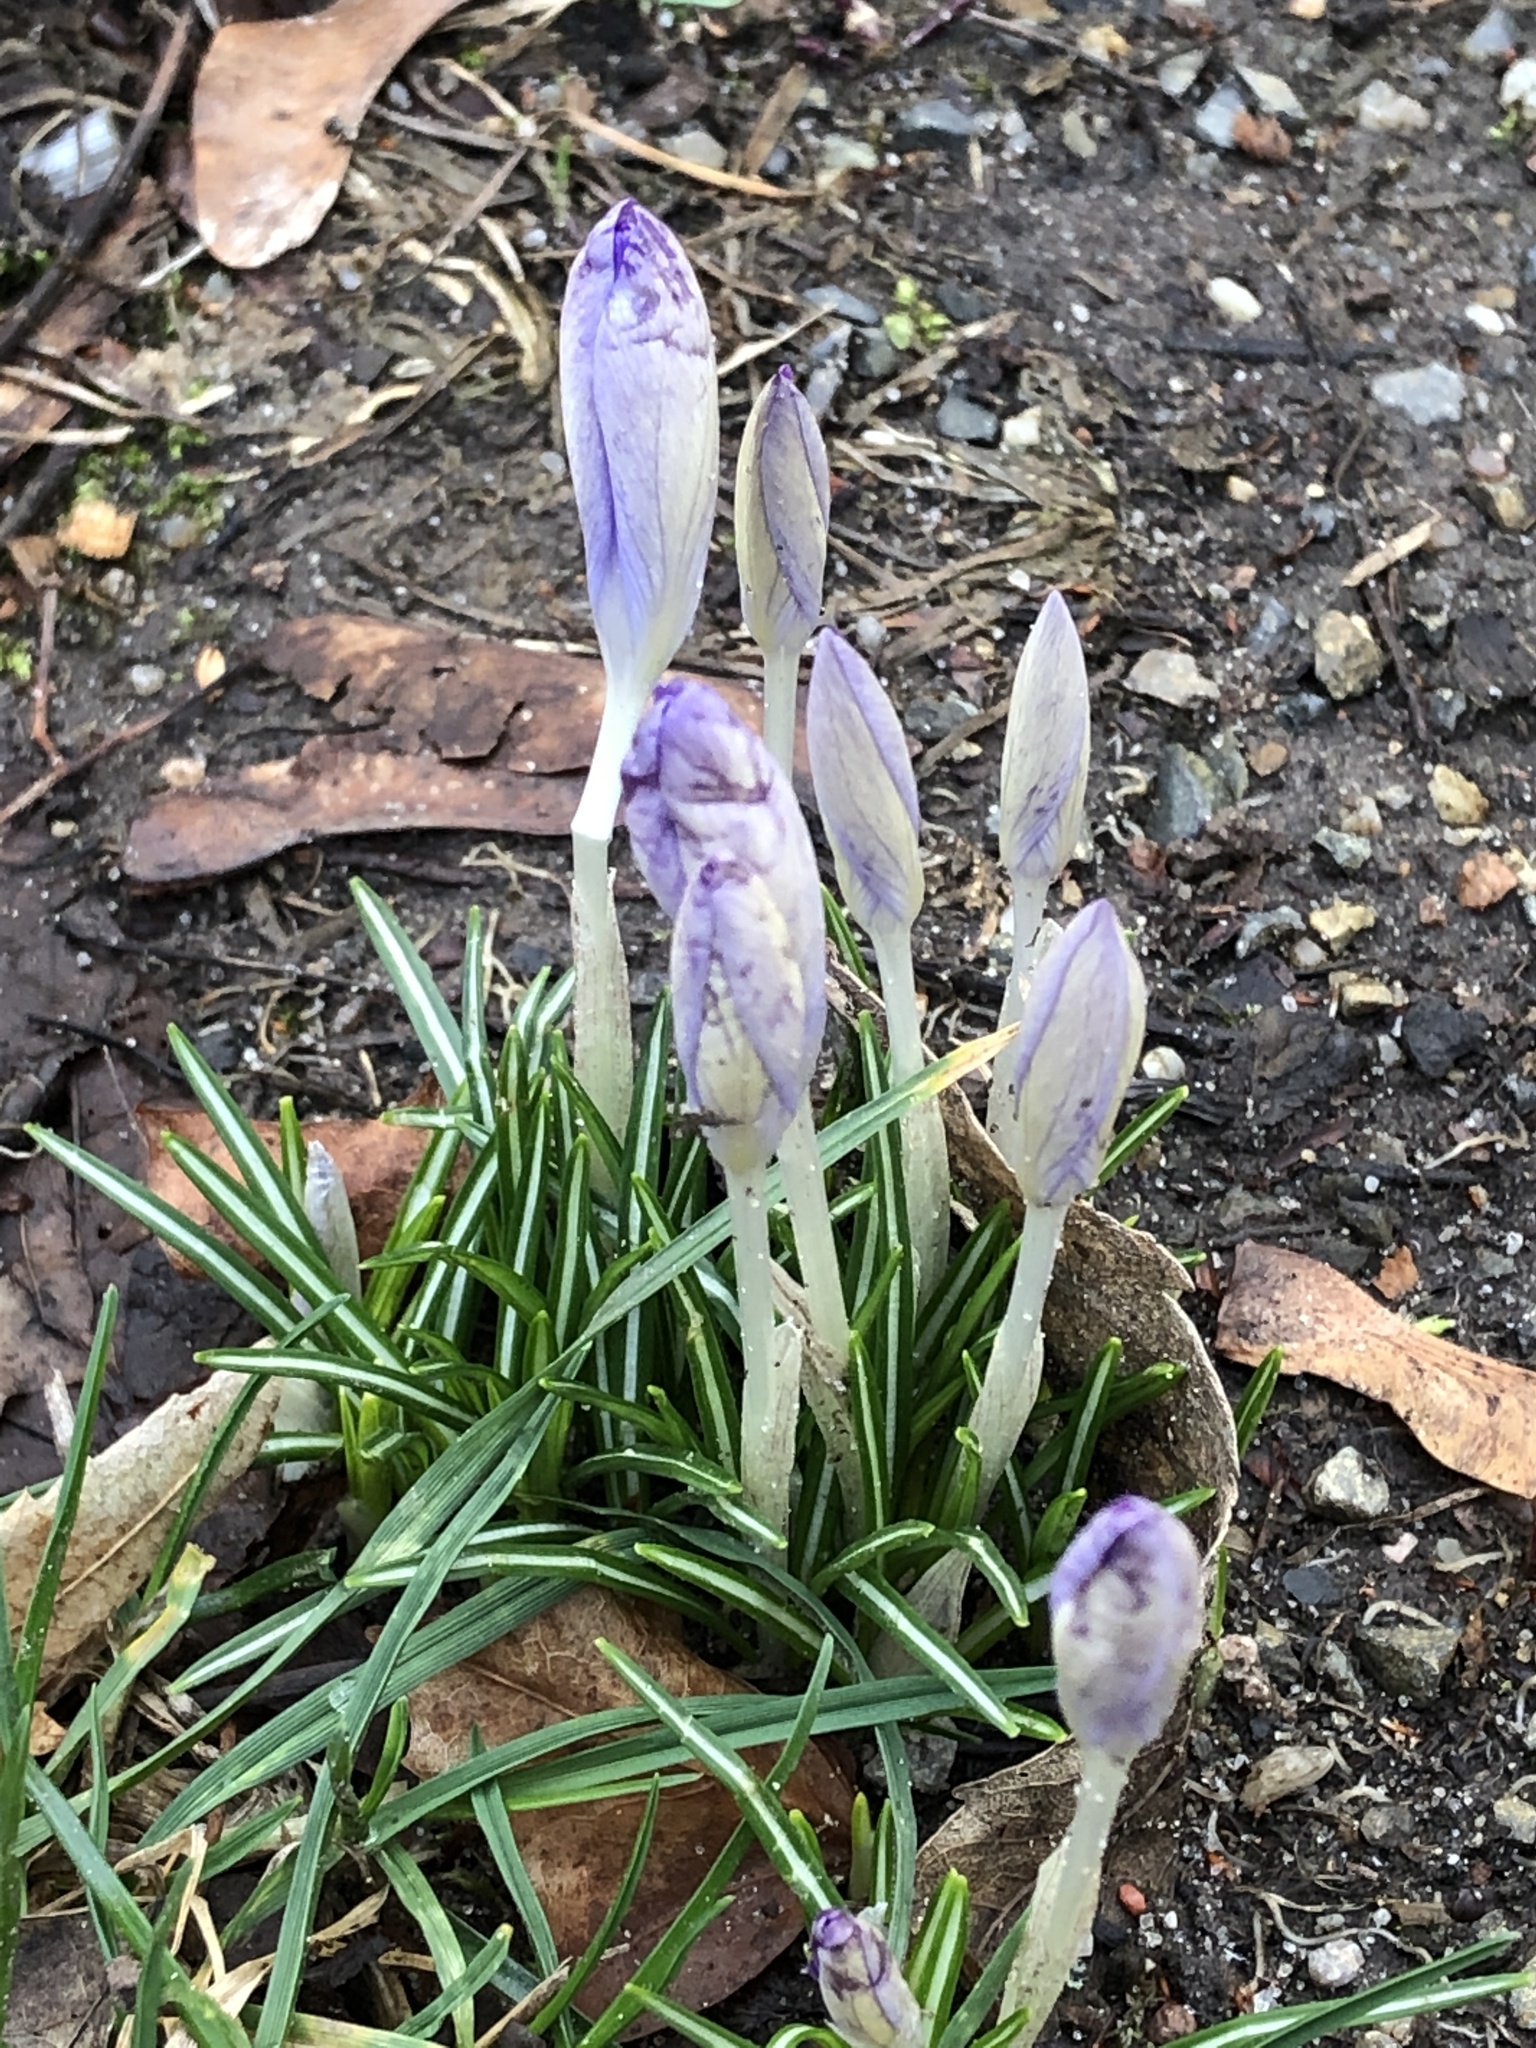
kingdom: Plantae
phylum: Tracheophyta
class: Liliopsida
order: Asparagales
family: Iridaceae
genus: Crocus
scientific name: Crocus tommasinianus
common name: Early crocus
